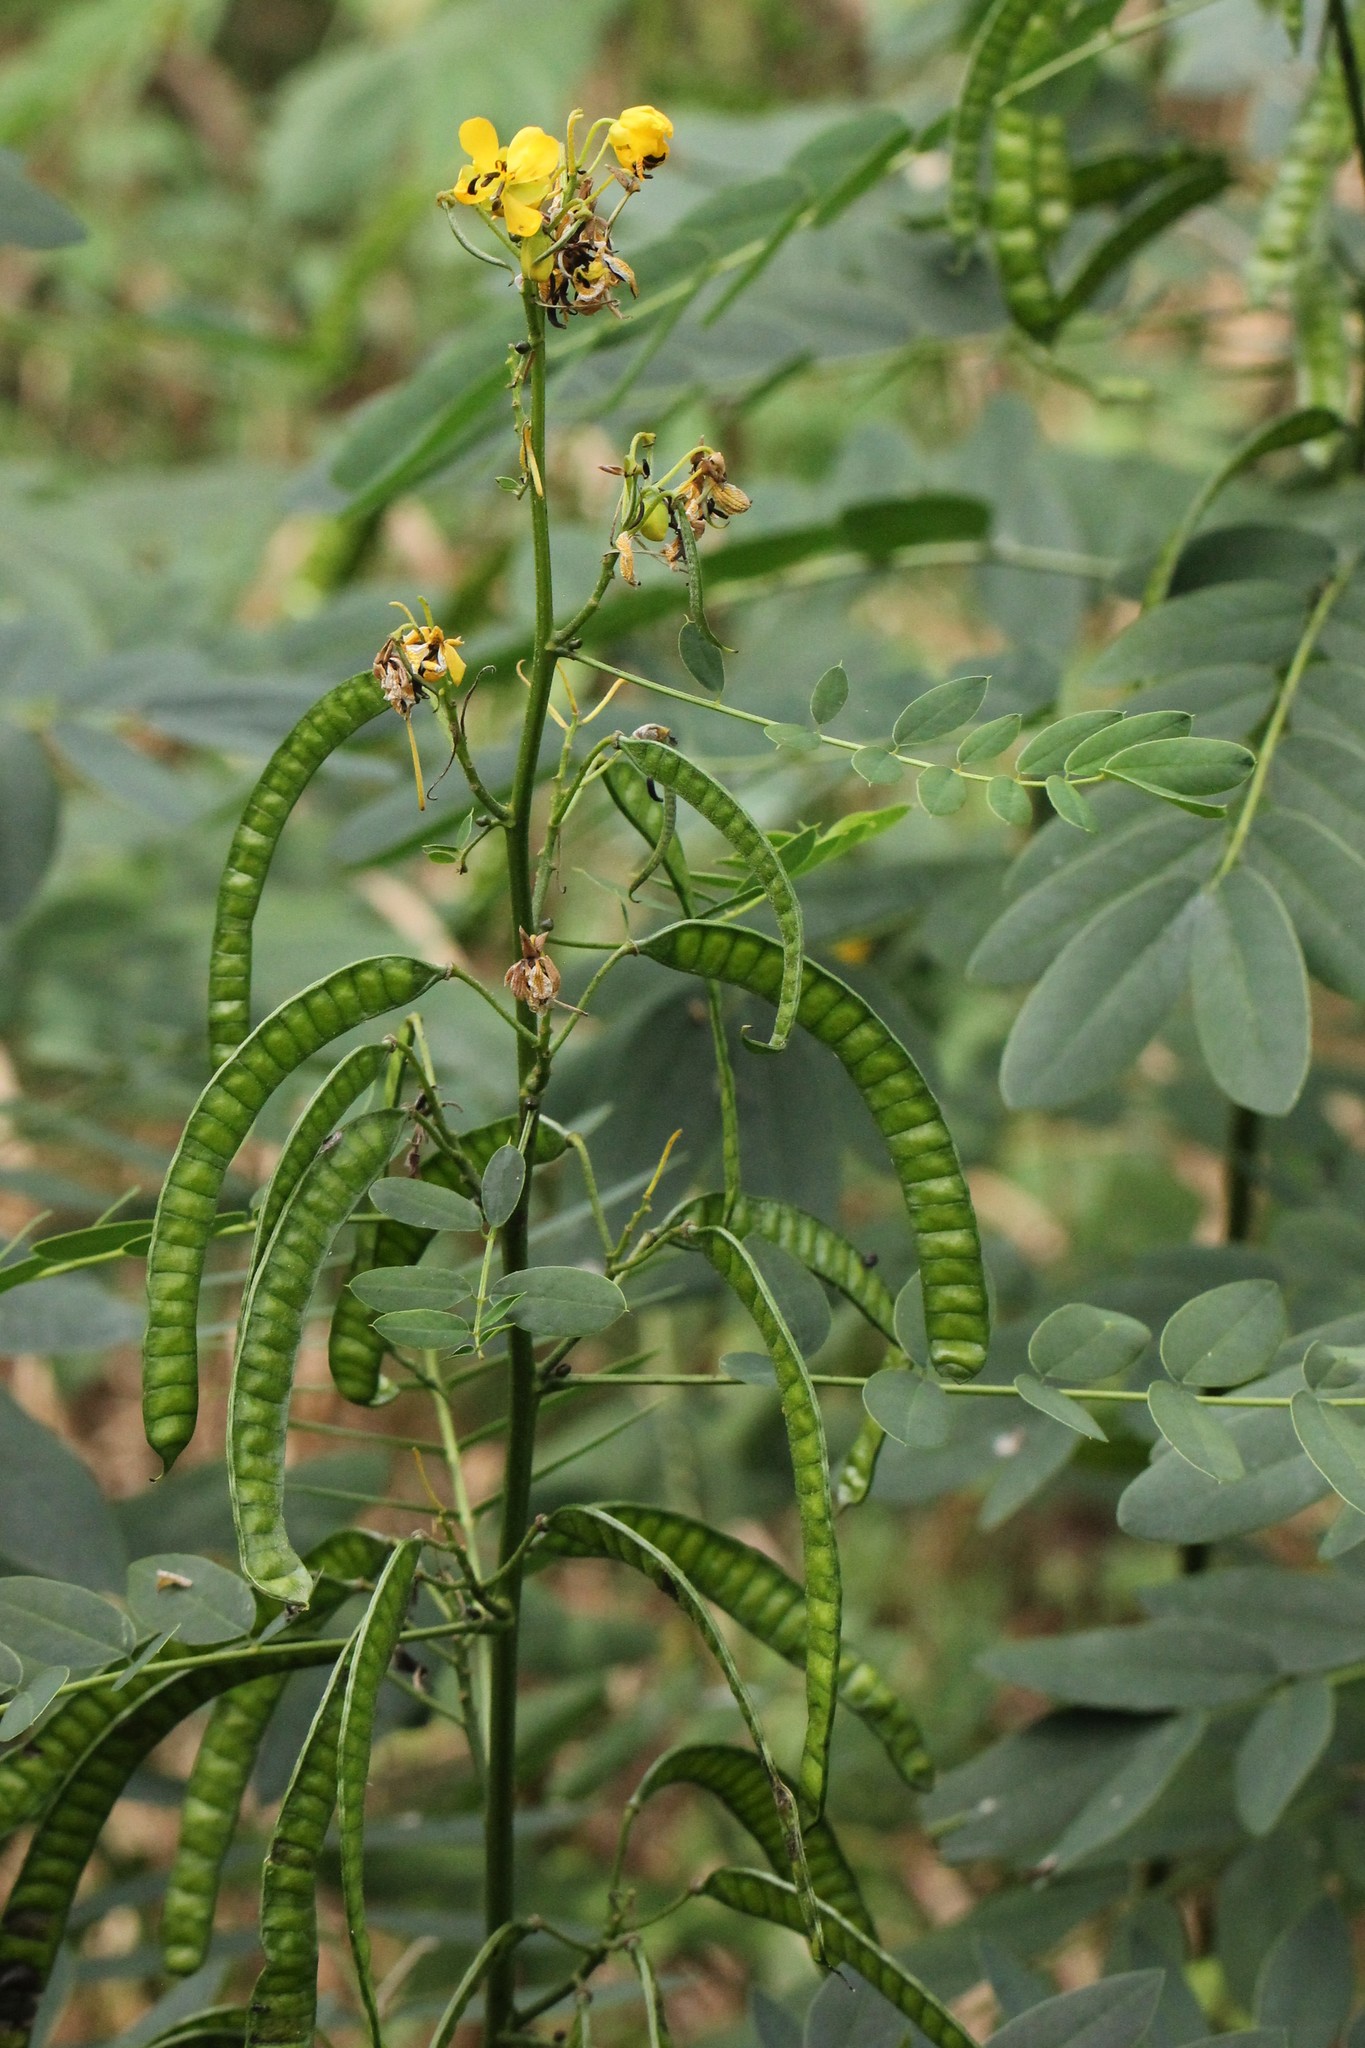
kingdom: Plantae
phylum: Tracheophyta
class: Magnoliopsida
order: Fabales
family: Fabaceae
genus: Senna
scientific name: Senna marilandica
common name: American senna
